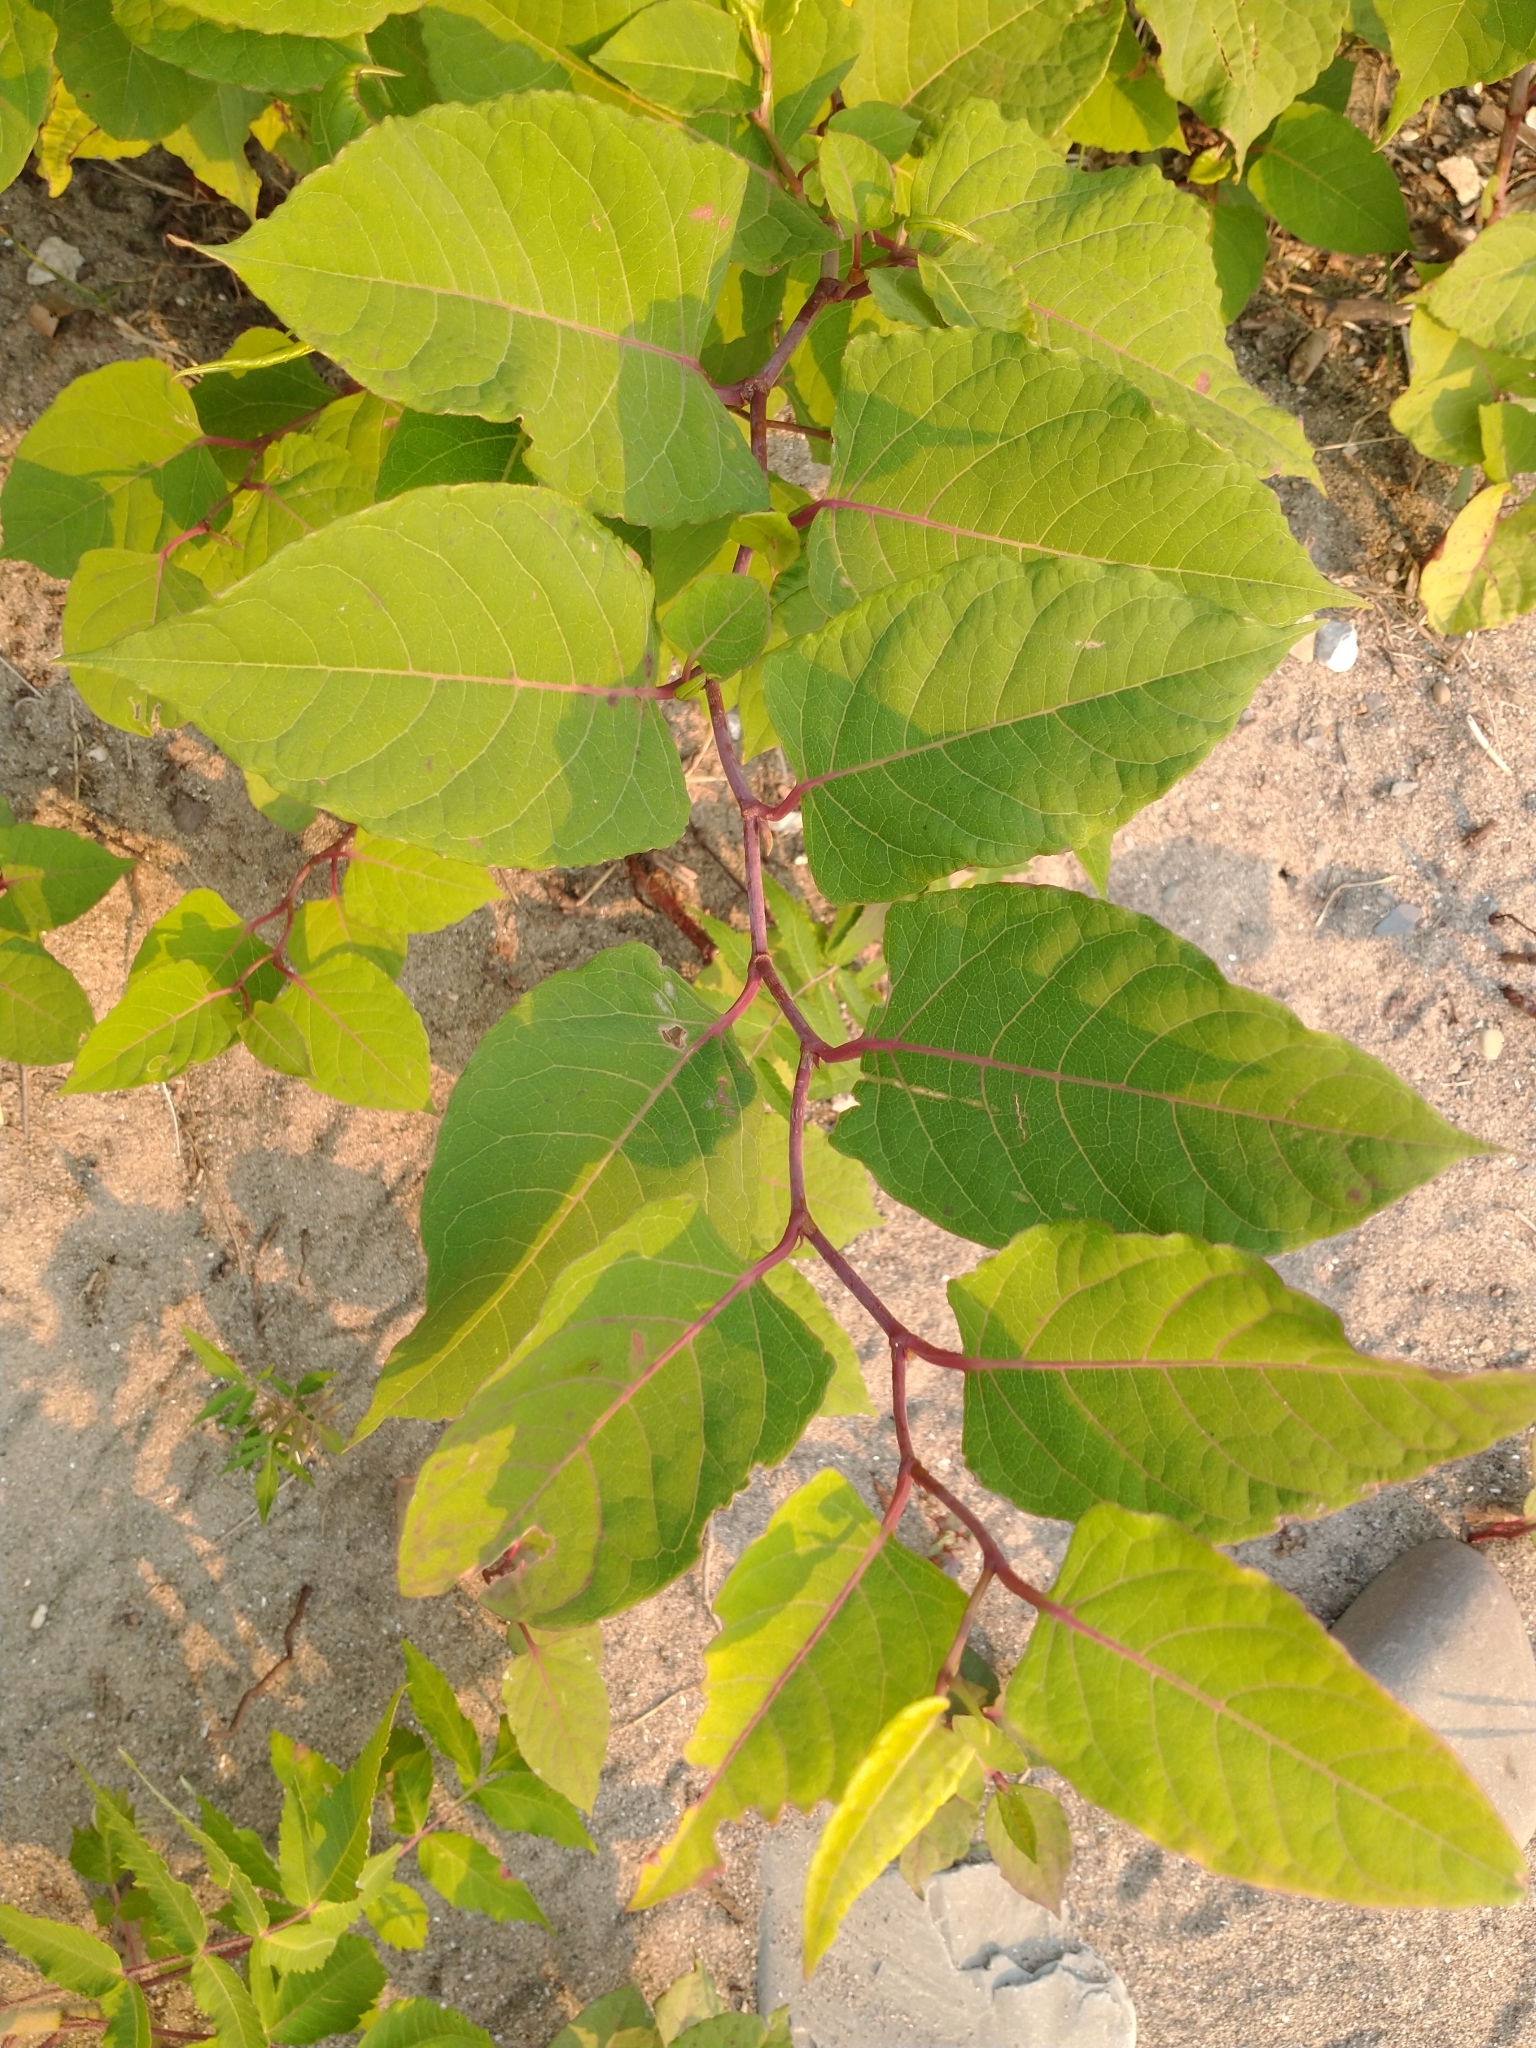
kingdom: Plantae
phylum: Tracheophyta
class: Magnoliopsida
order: Caryophyllales
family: Polygonaceae
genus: Reynoutria
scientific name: Reynoutria japonica
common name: Japanese knotweed
